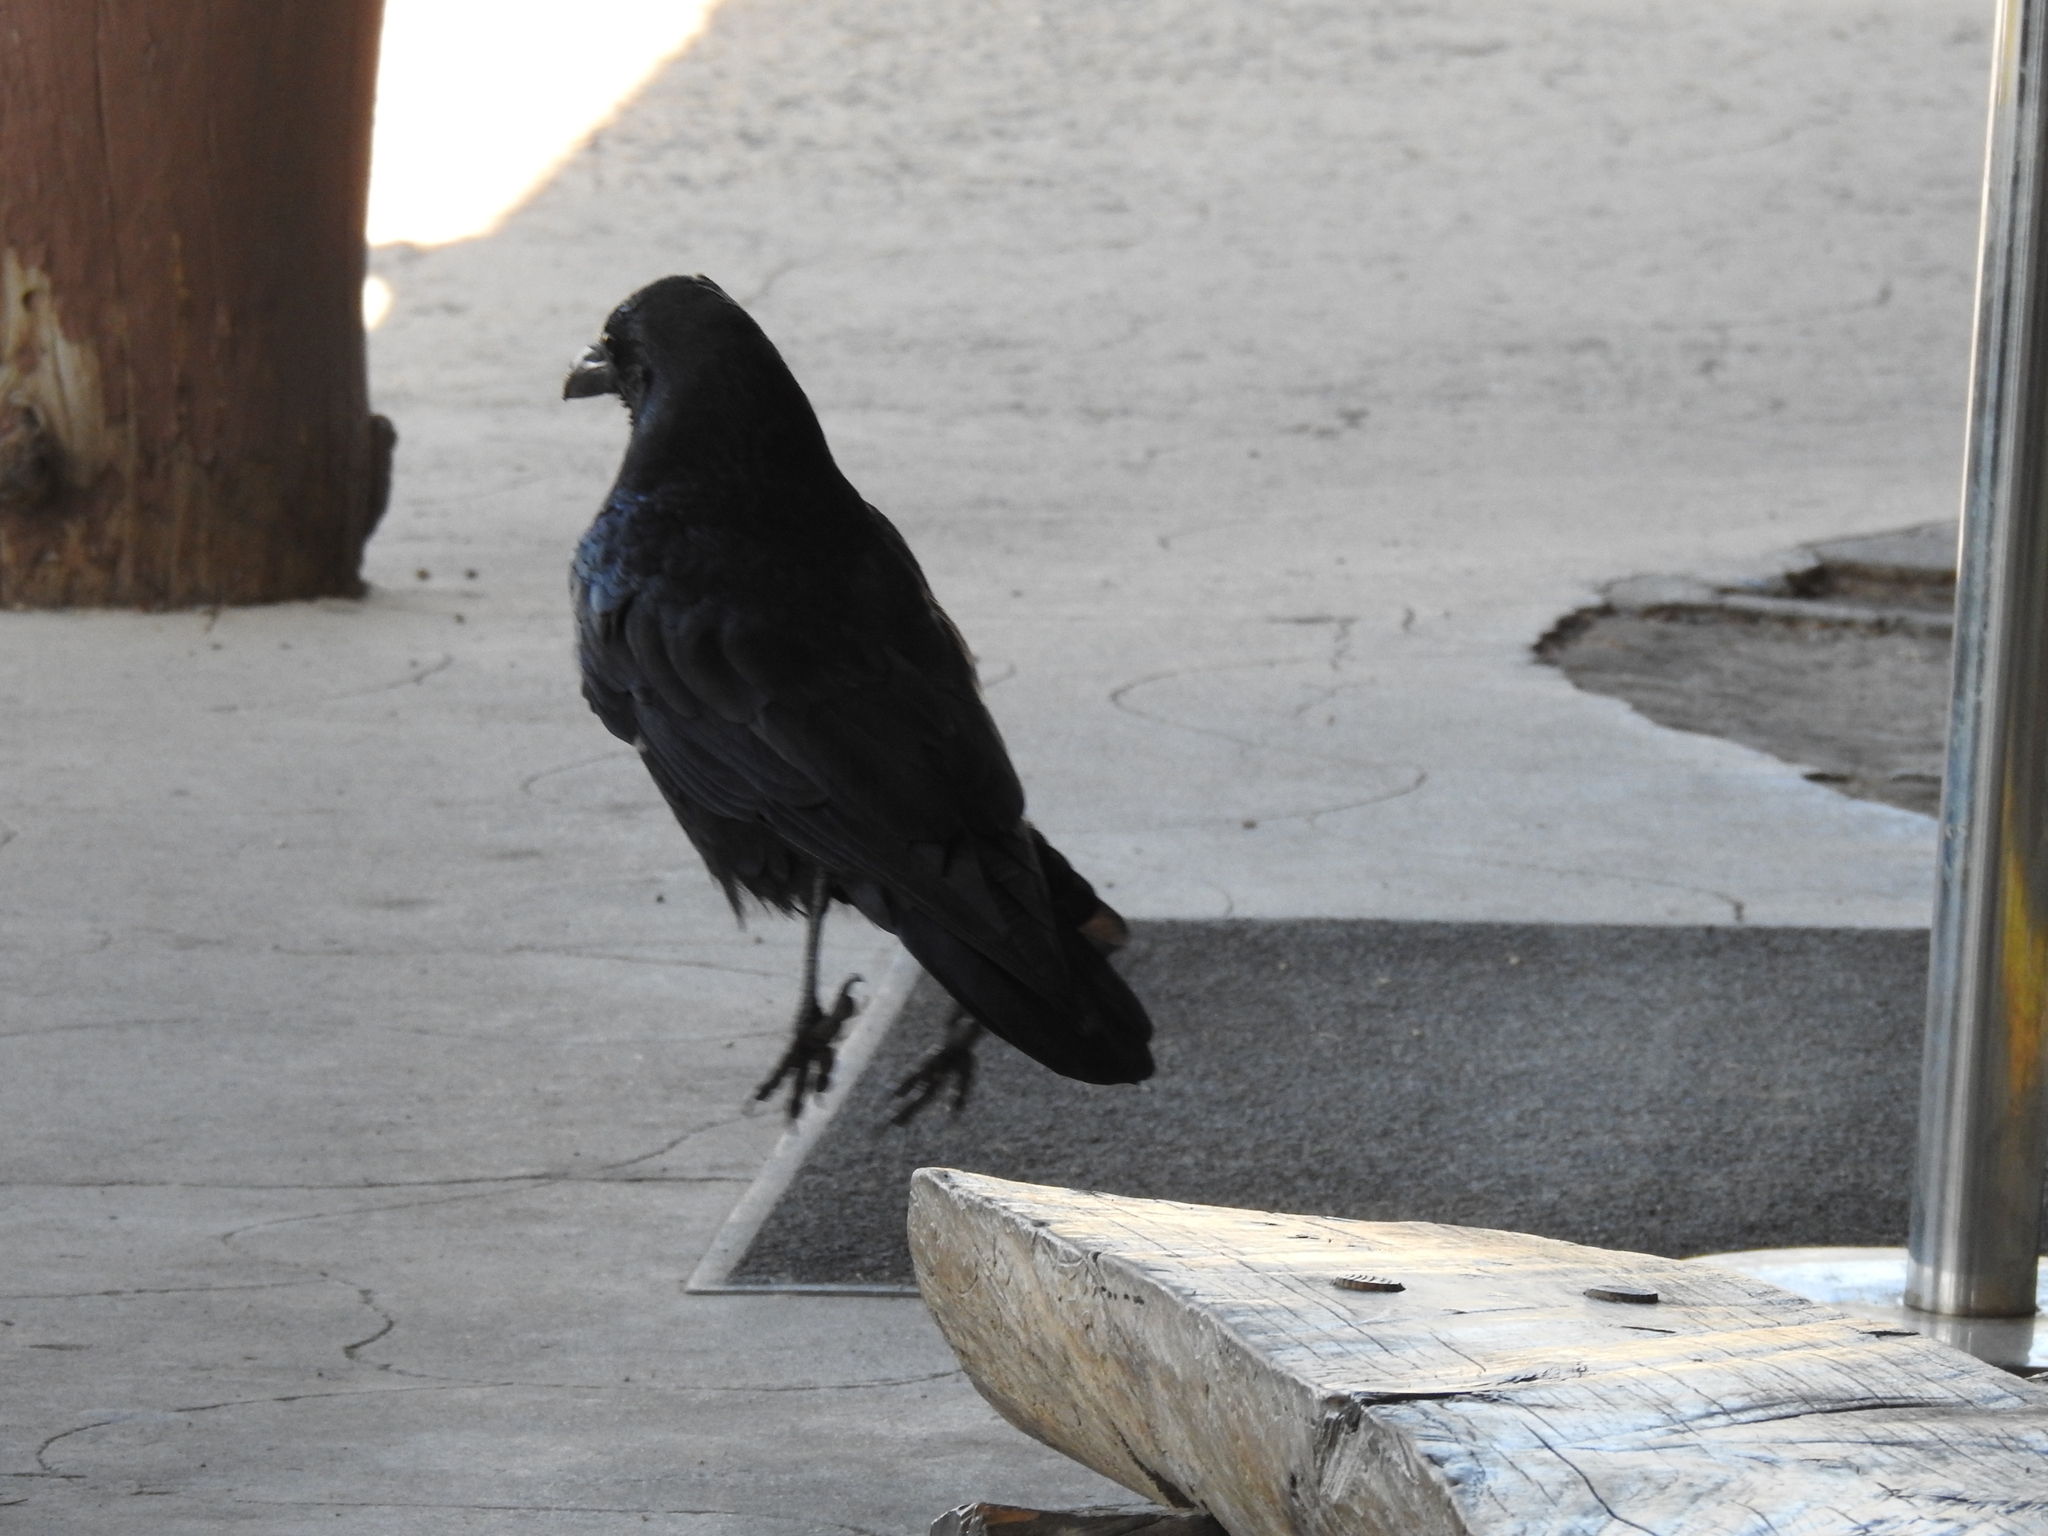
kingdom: Animalia
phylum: Chordata
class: Aves
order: Passeriformes
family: Corvidae
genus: Corvus
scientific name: Corvus corax
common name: Common raven
